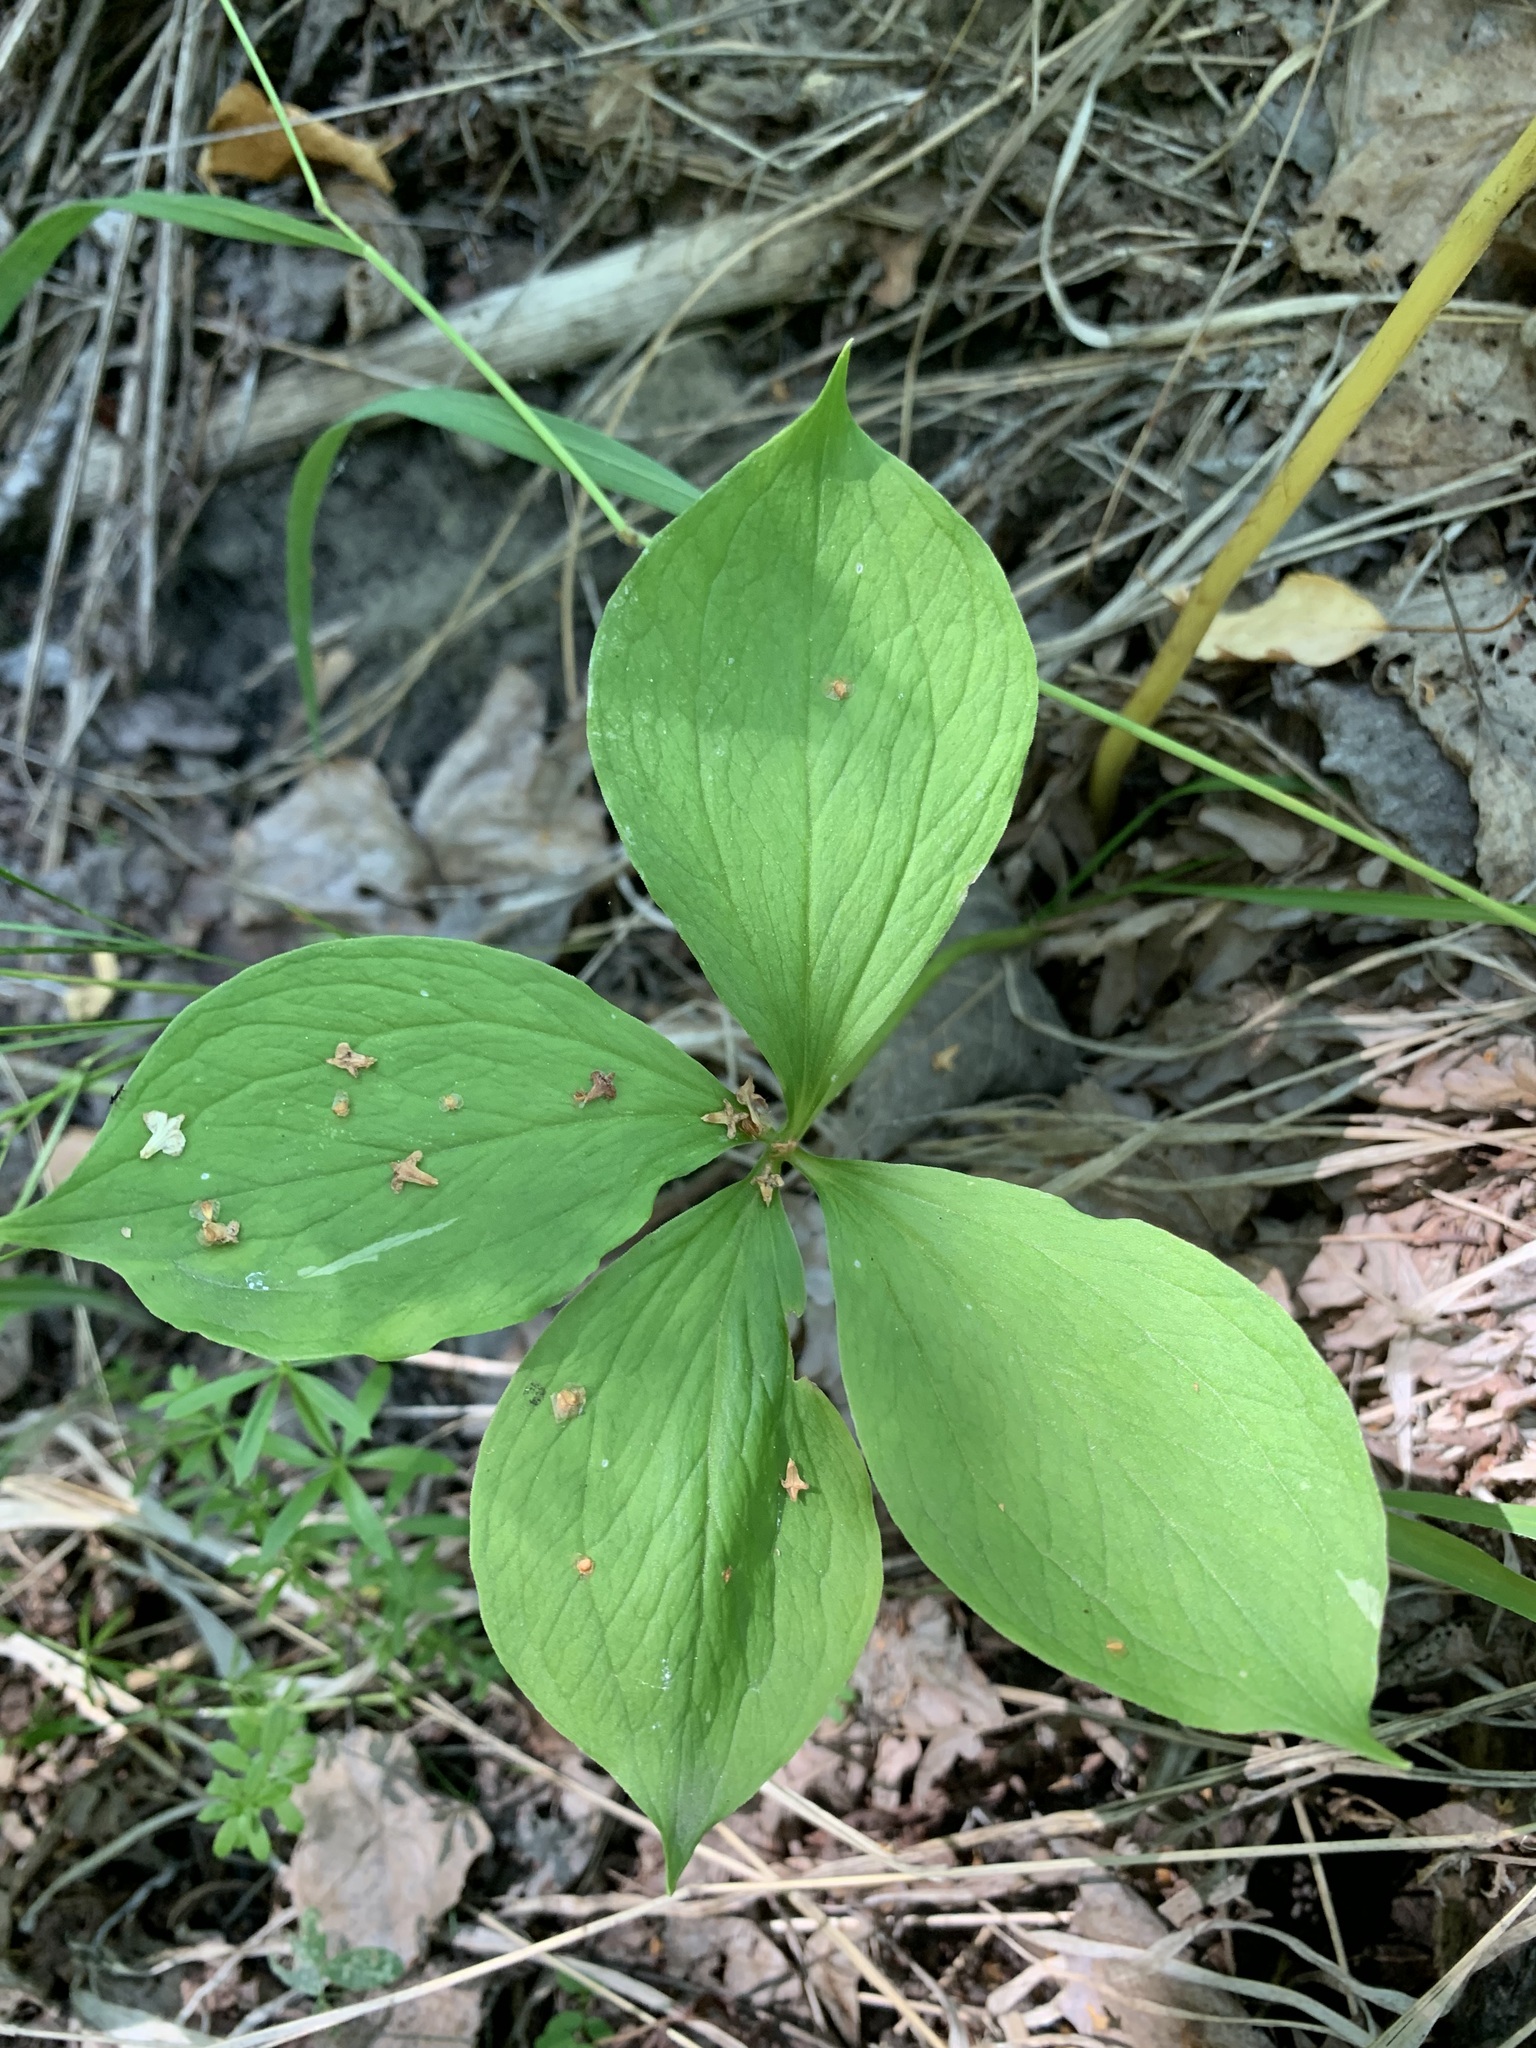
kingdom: Plantae
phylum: Tracheophyta
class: Liliopsida
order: Liliales
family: Melanthiaceae
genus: Paris
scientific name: Paris quadrifolia
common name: Herb-paris
